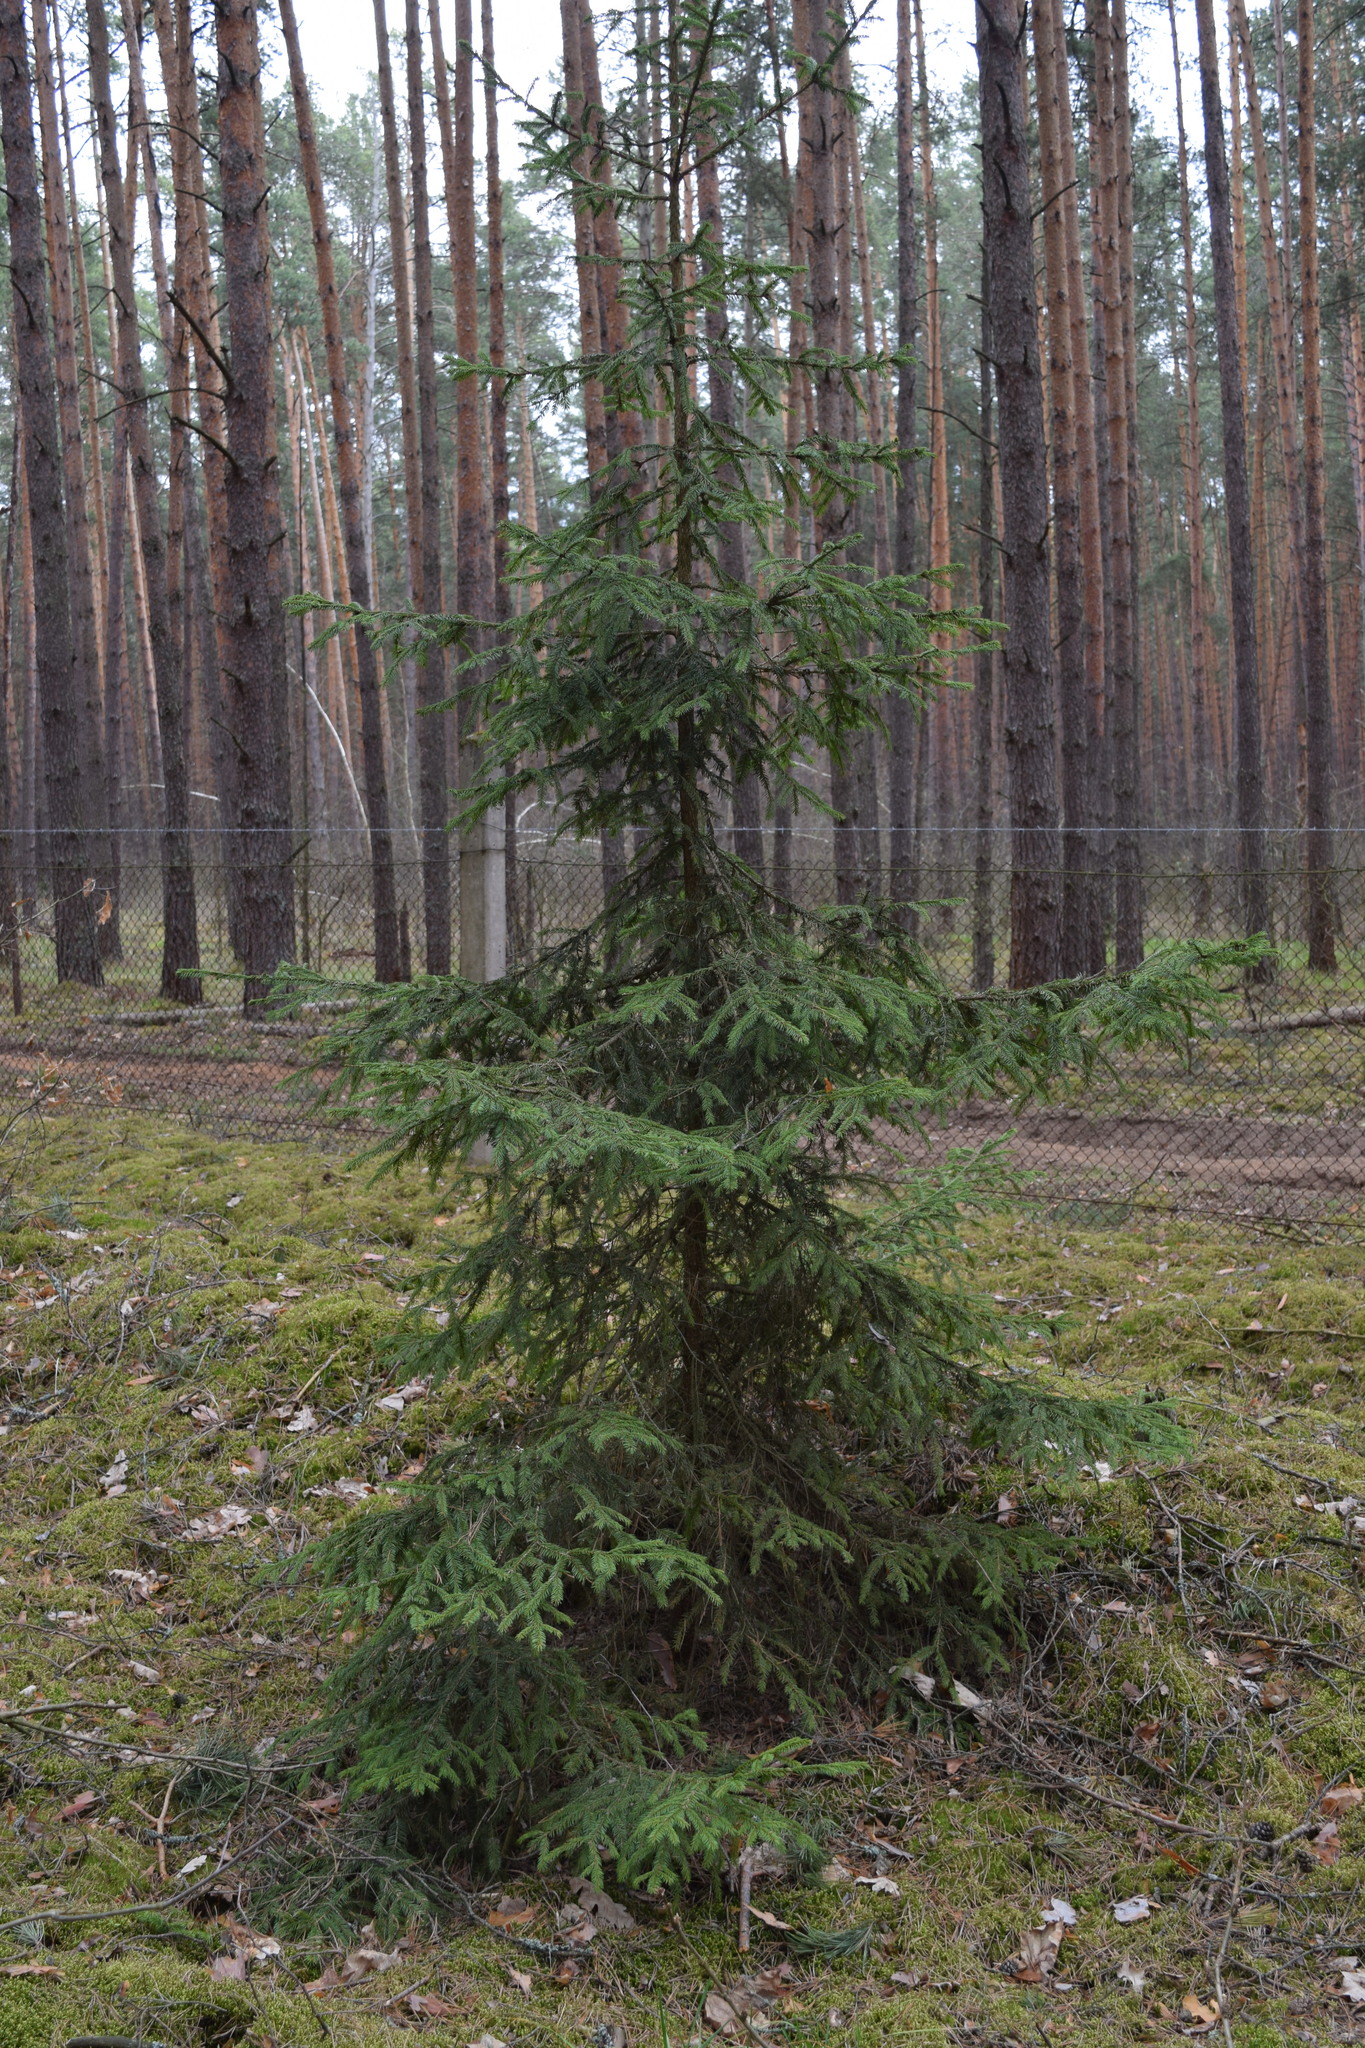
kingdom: Plantae
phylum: Tracheophyta
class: Pinopsida
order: Pinales
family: Pinaceae
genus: Picea
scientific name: Picea abies
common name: Norway spruce
